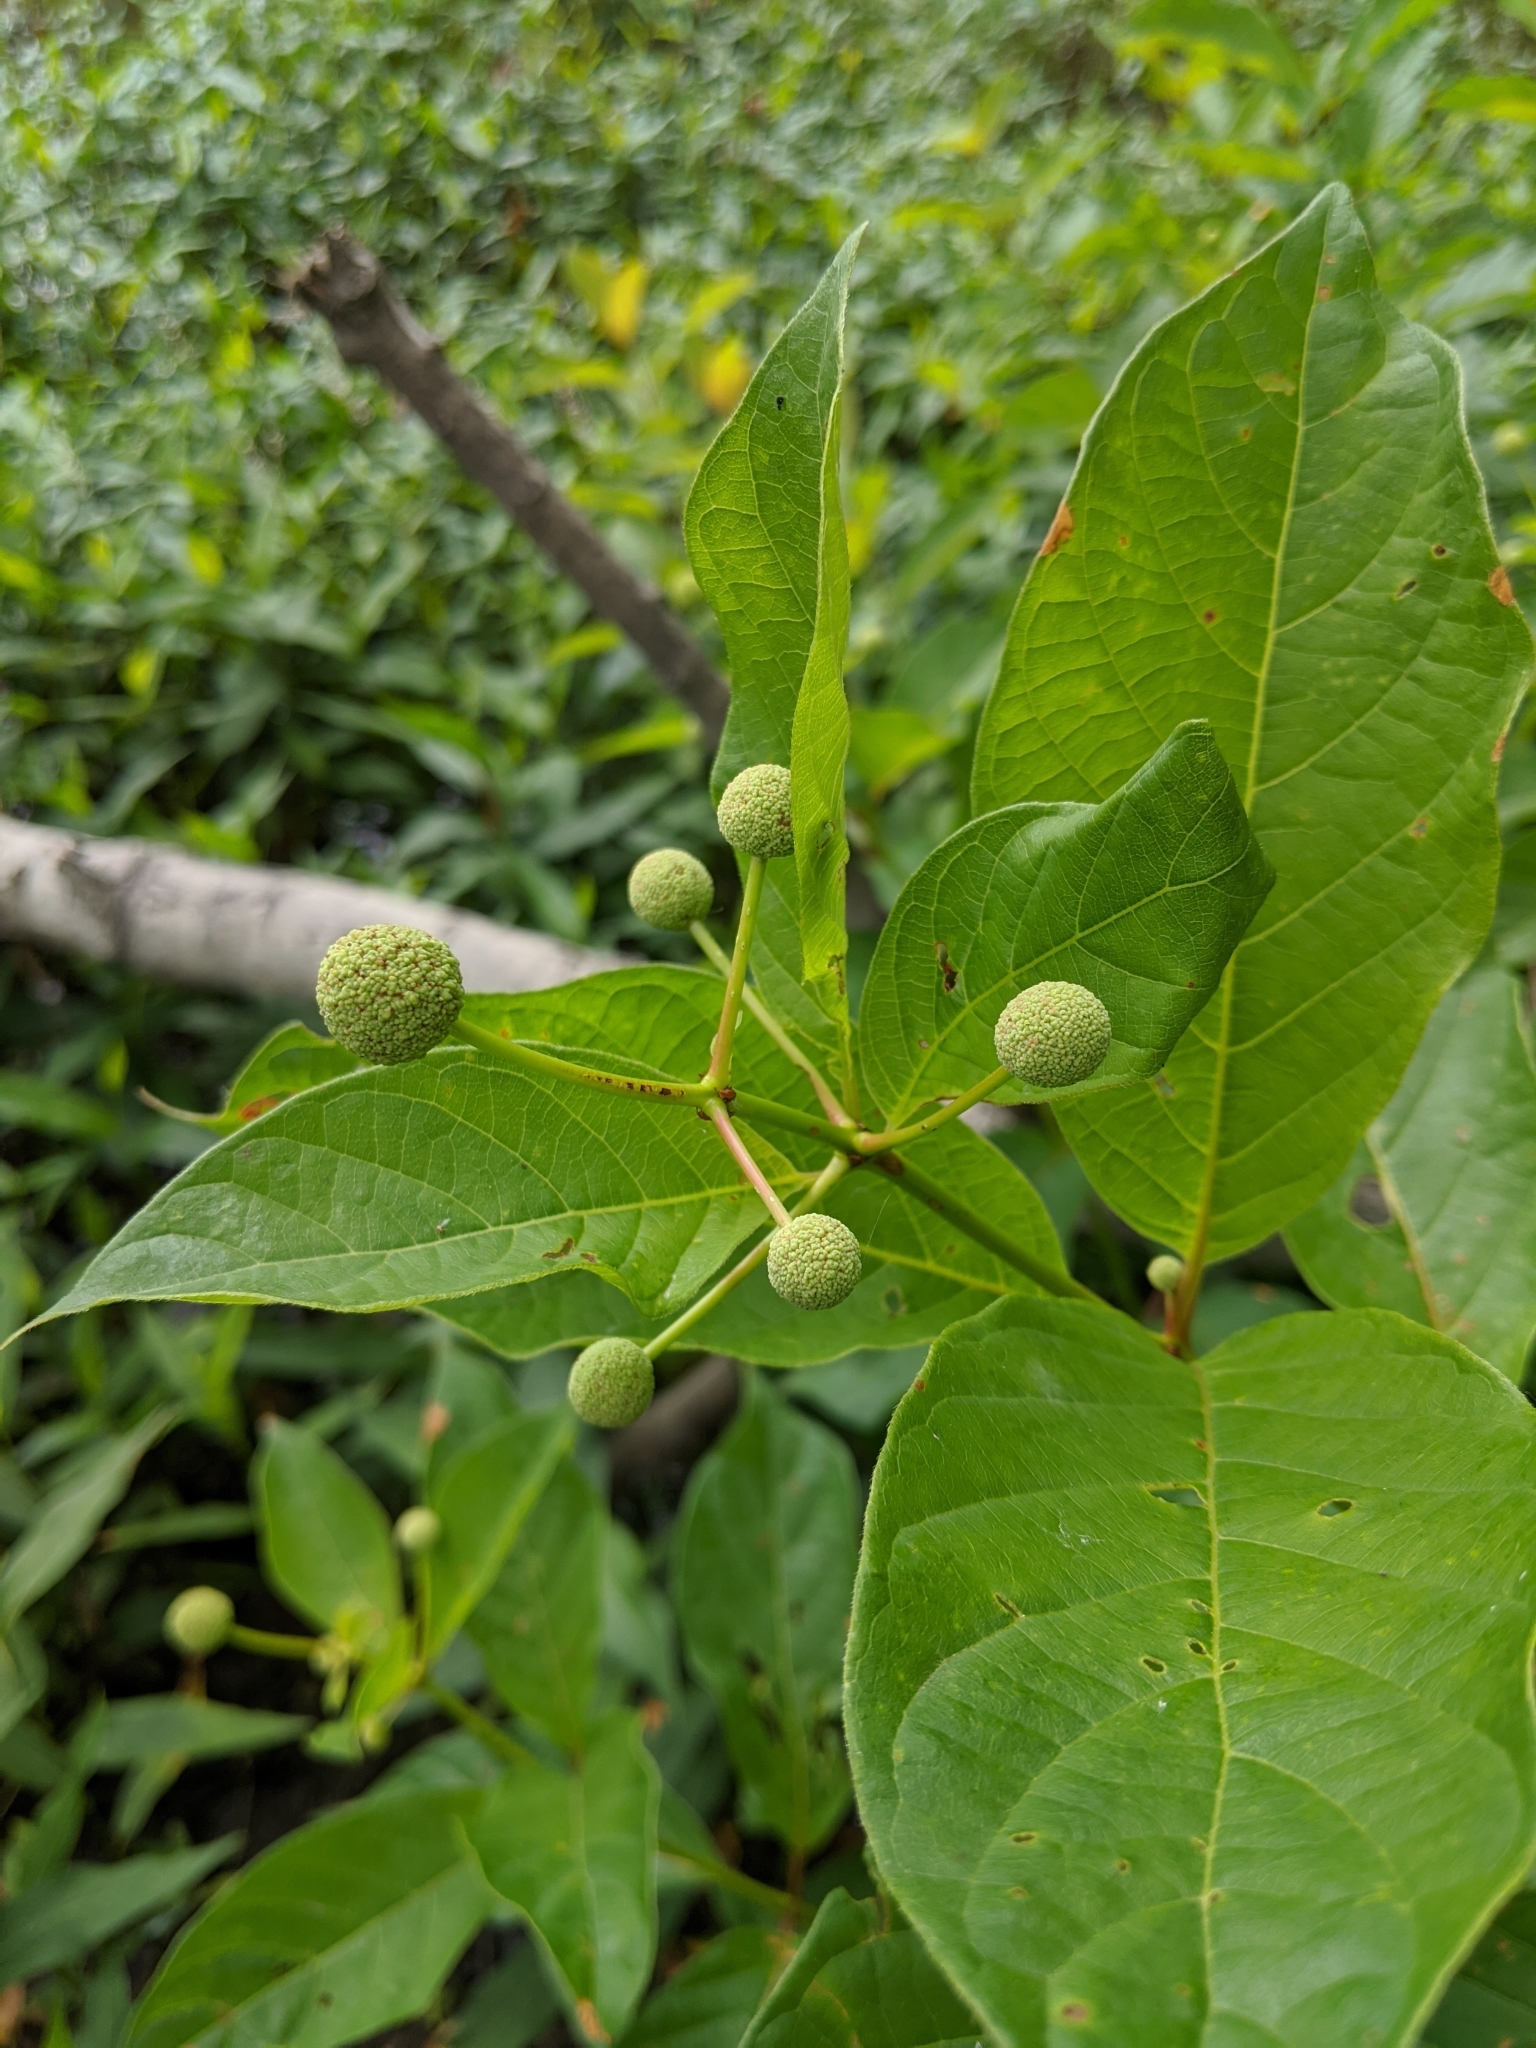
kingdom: Plantae
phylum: Tracheophyta
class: Magnoliopsida
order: Gentianales
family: Rubiaceae
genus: Cephalanthus
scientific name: Cephalanthus occidentalis
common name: Button-willow
